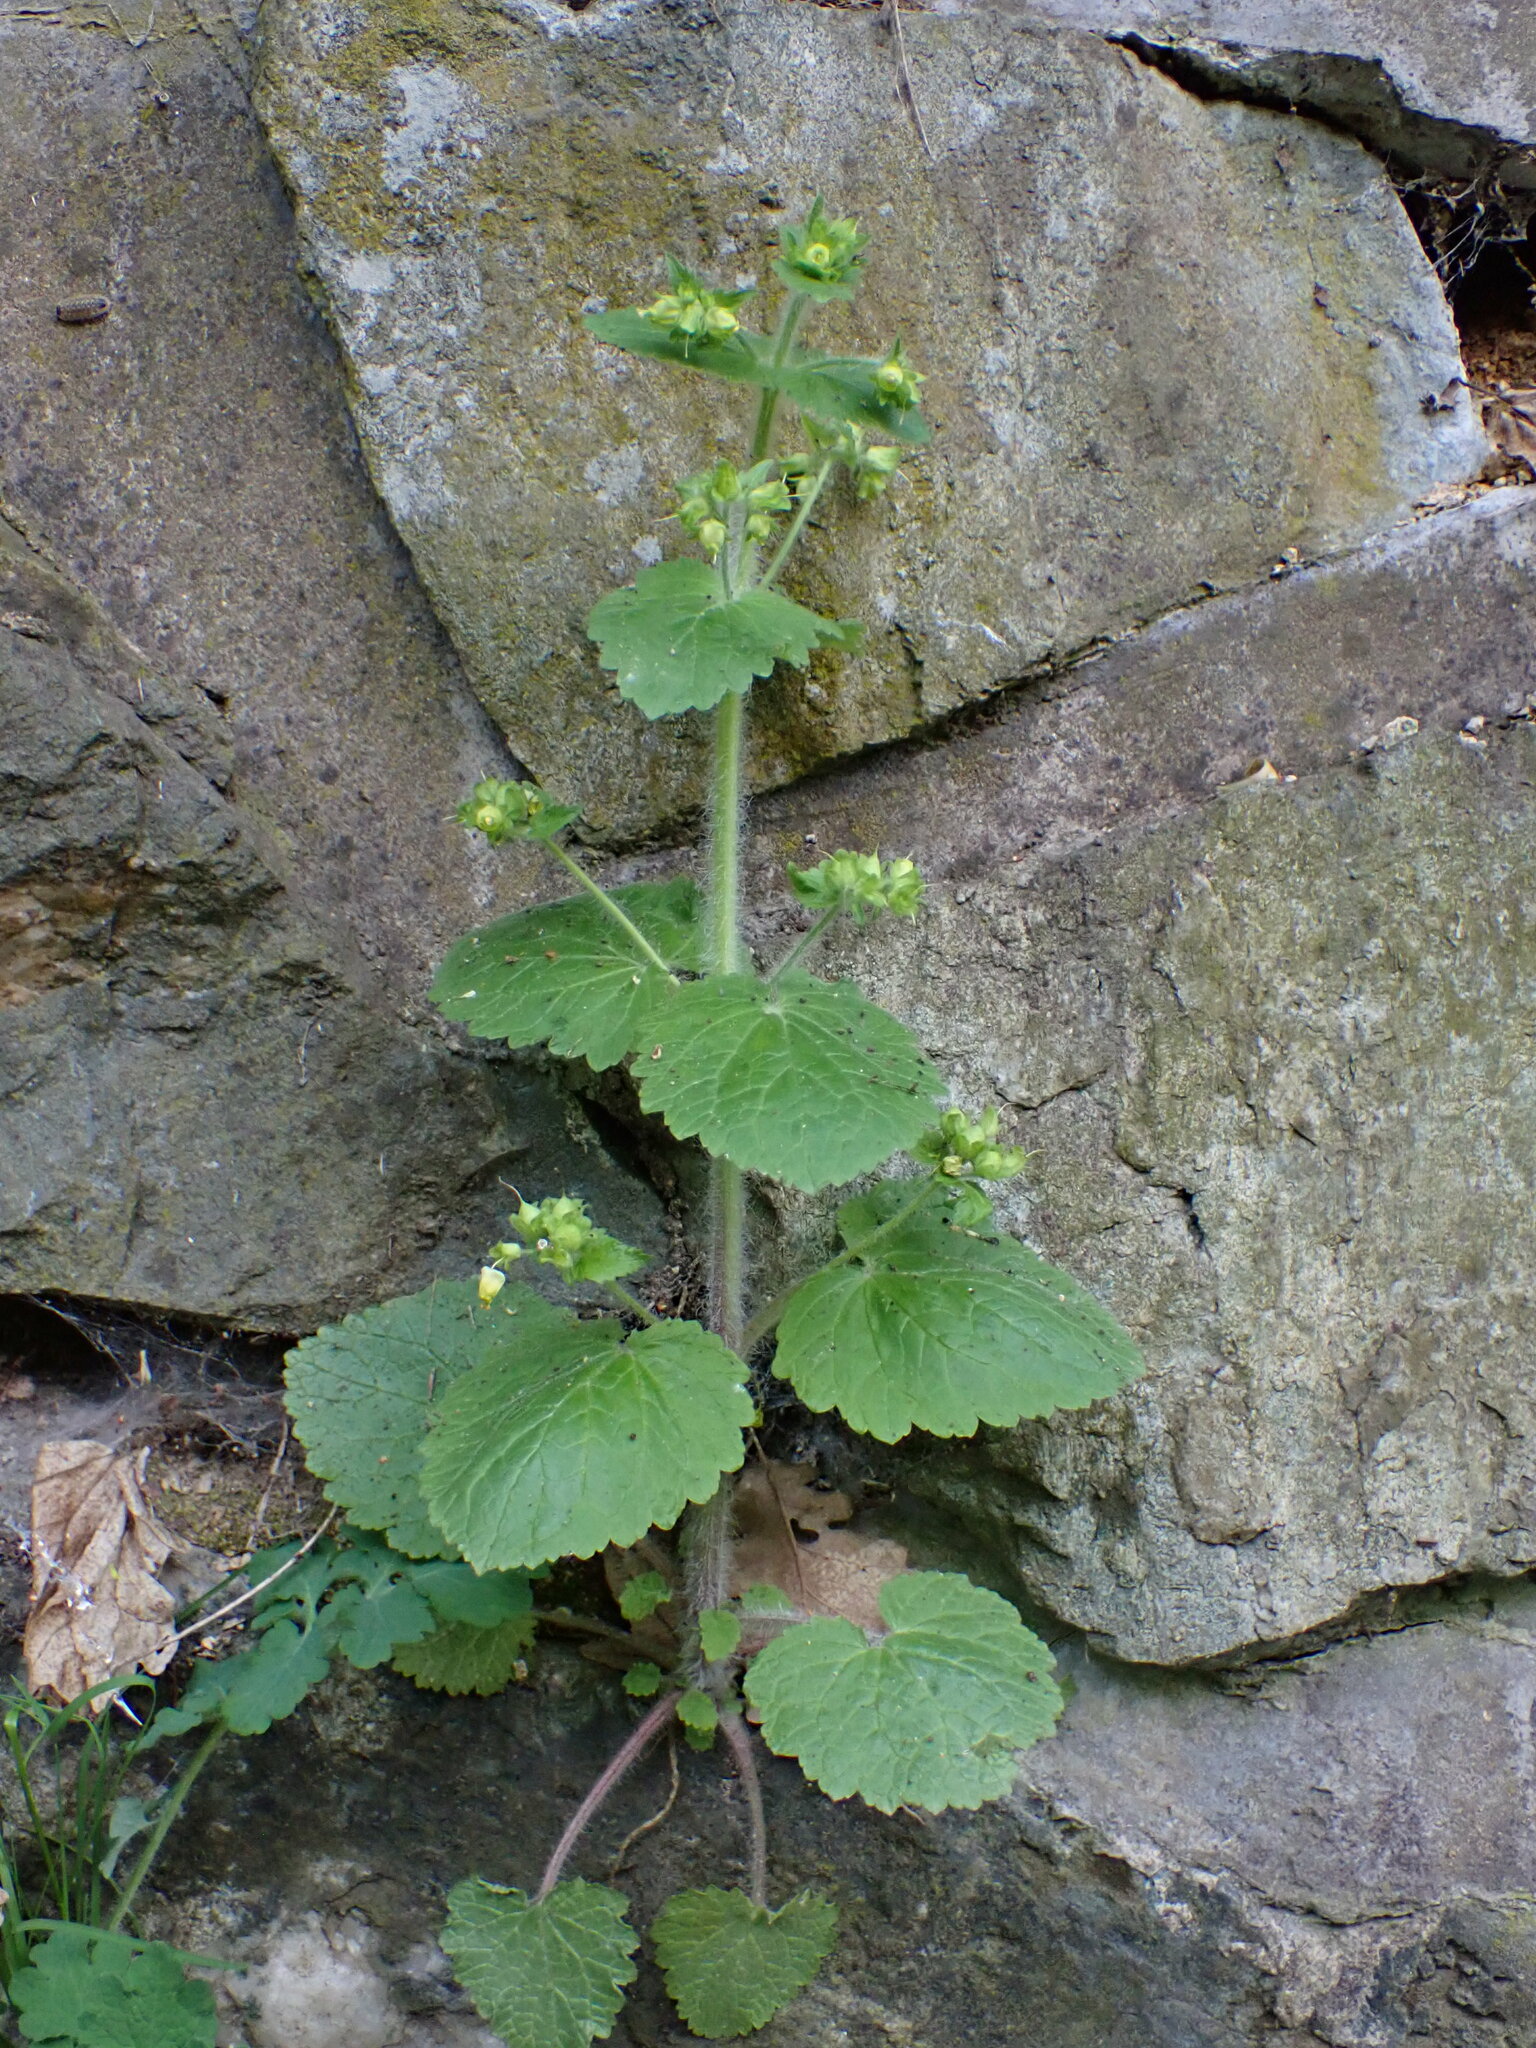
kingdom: Plantae
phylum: Tracheophyta
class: Magnoliopsida
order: Lamiales
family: Scrophulariaceae
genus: Scrophularia
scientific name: Scrophularia vernalis
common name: Yellow figwort
